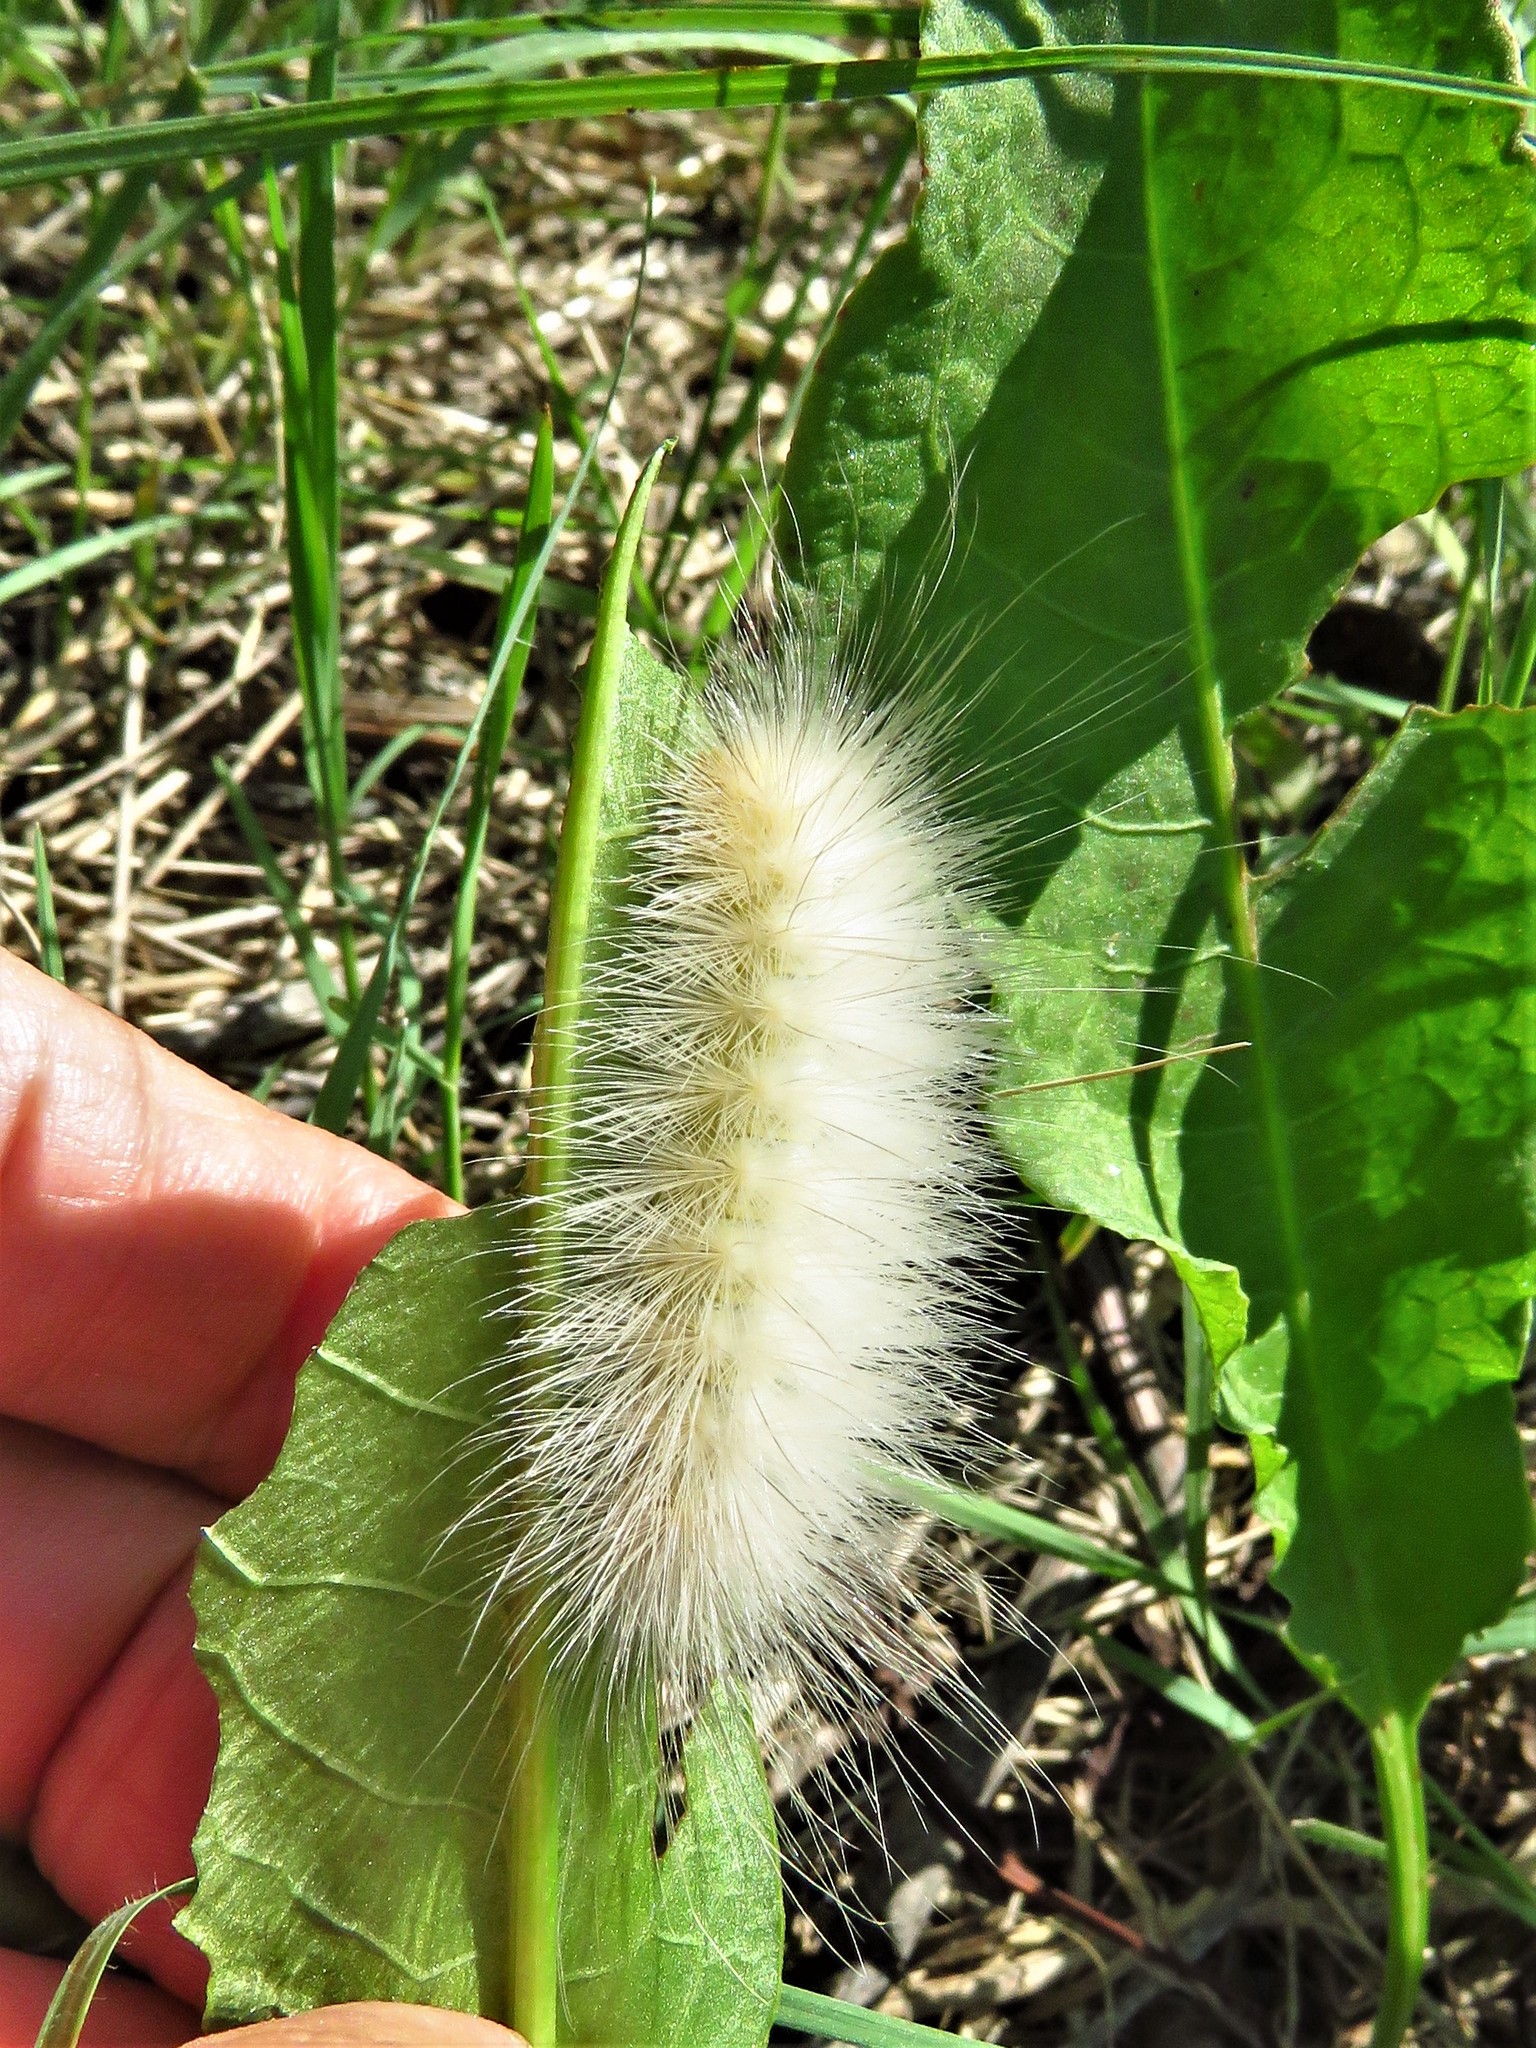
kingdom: Animalia
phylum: Arthropoda
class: Insecta
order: Lepidoptera
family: Erebidae
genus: Spilosoma
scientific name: Spilosoma virginica
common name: Virginia tiger moth
